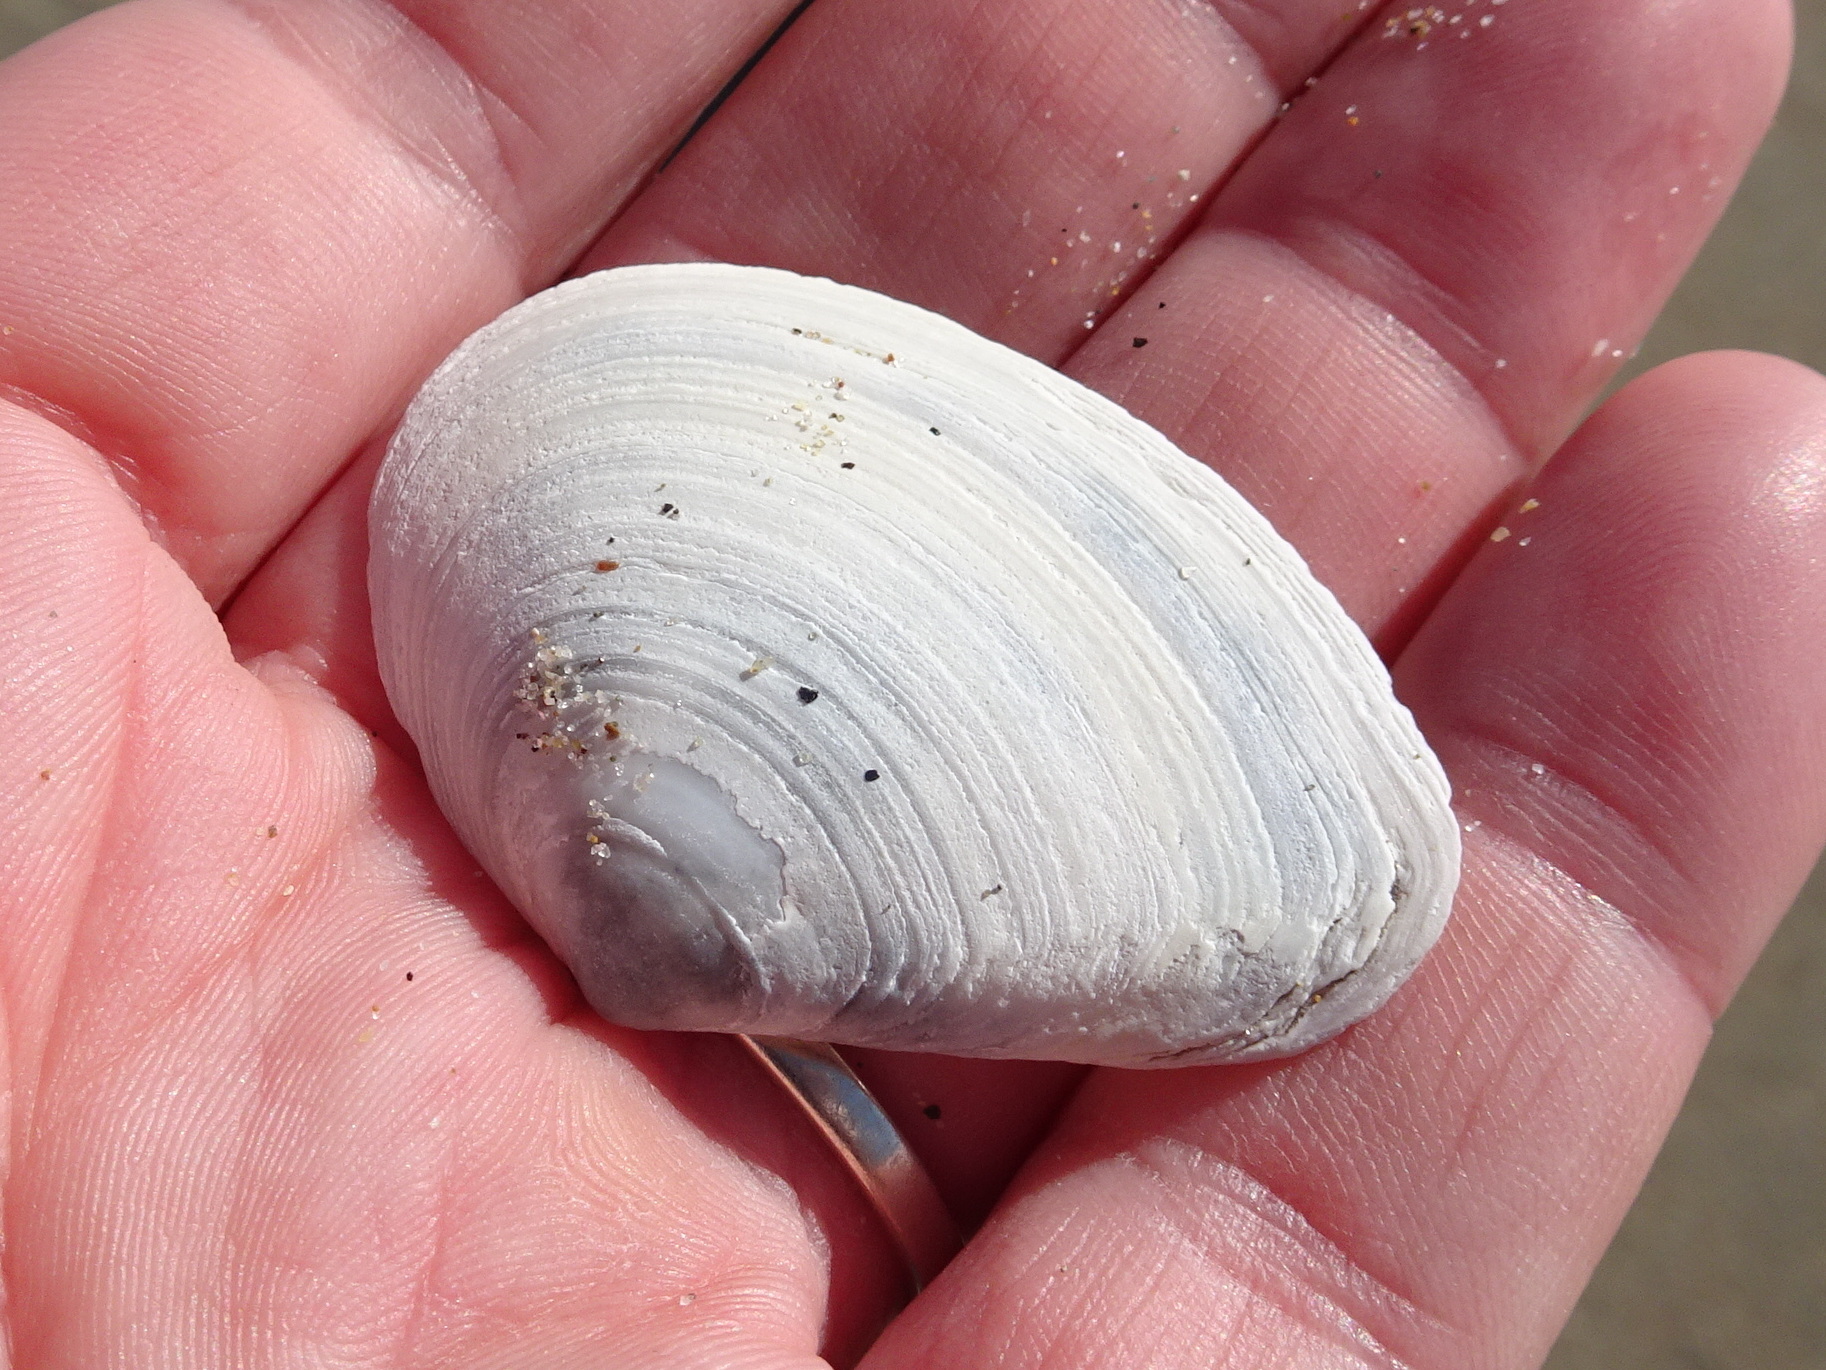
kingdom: Animalia
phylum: Mollusca
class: Bivalvia
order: Cardiida
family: Tellinidae
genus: Macoma
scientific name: Macoma nasuta
